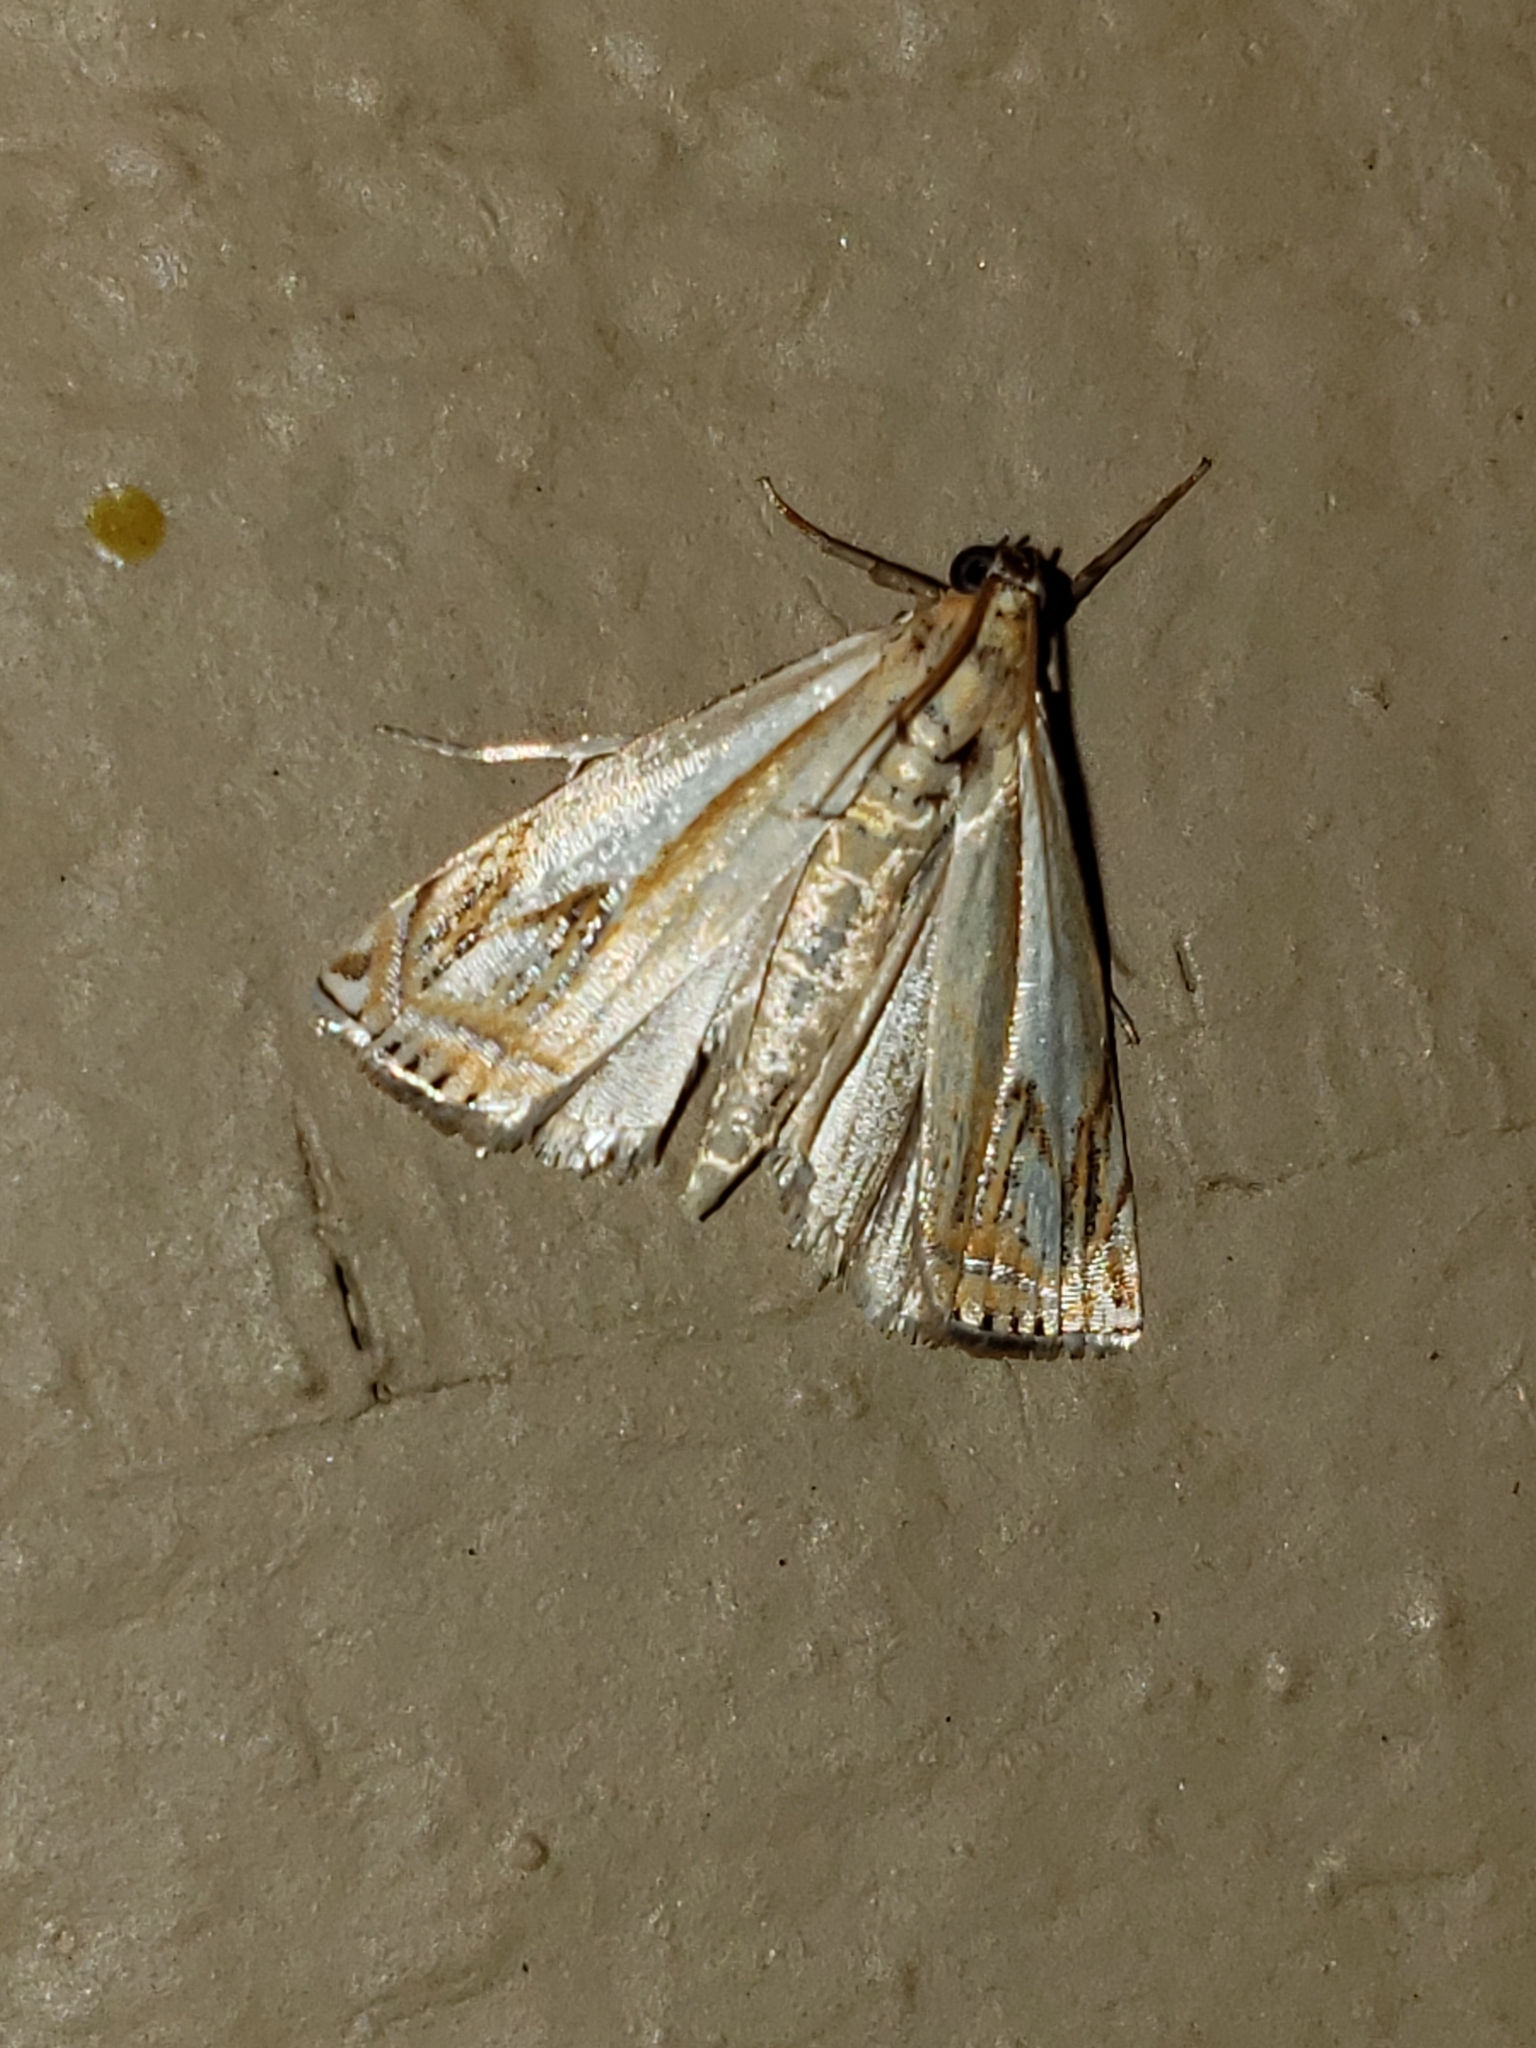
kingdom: Animalia
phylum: Arthropoda
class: Insecta
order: Lepidoptera
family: Crambidae
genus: Crambus
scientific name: Crambus agitatellus
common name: Double-banded grass-veneer
